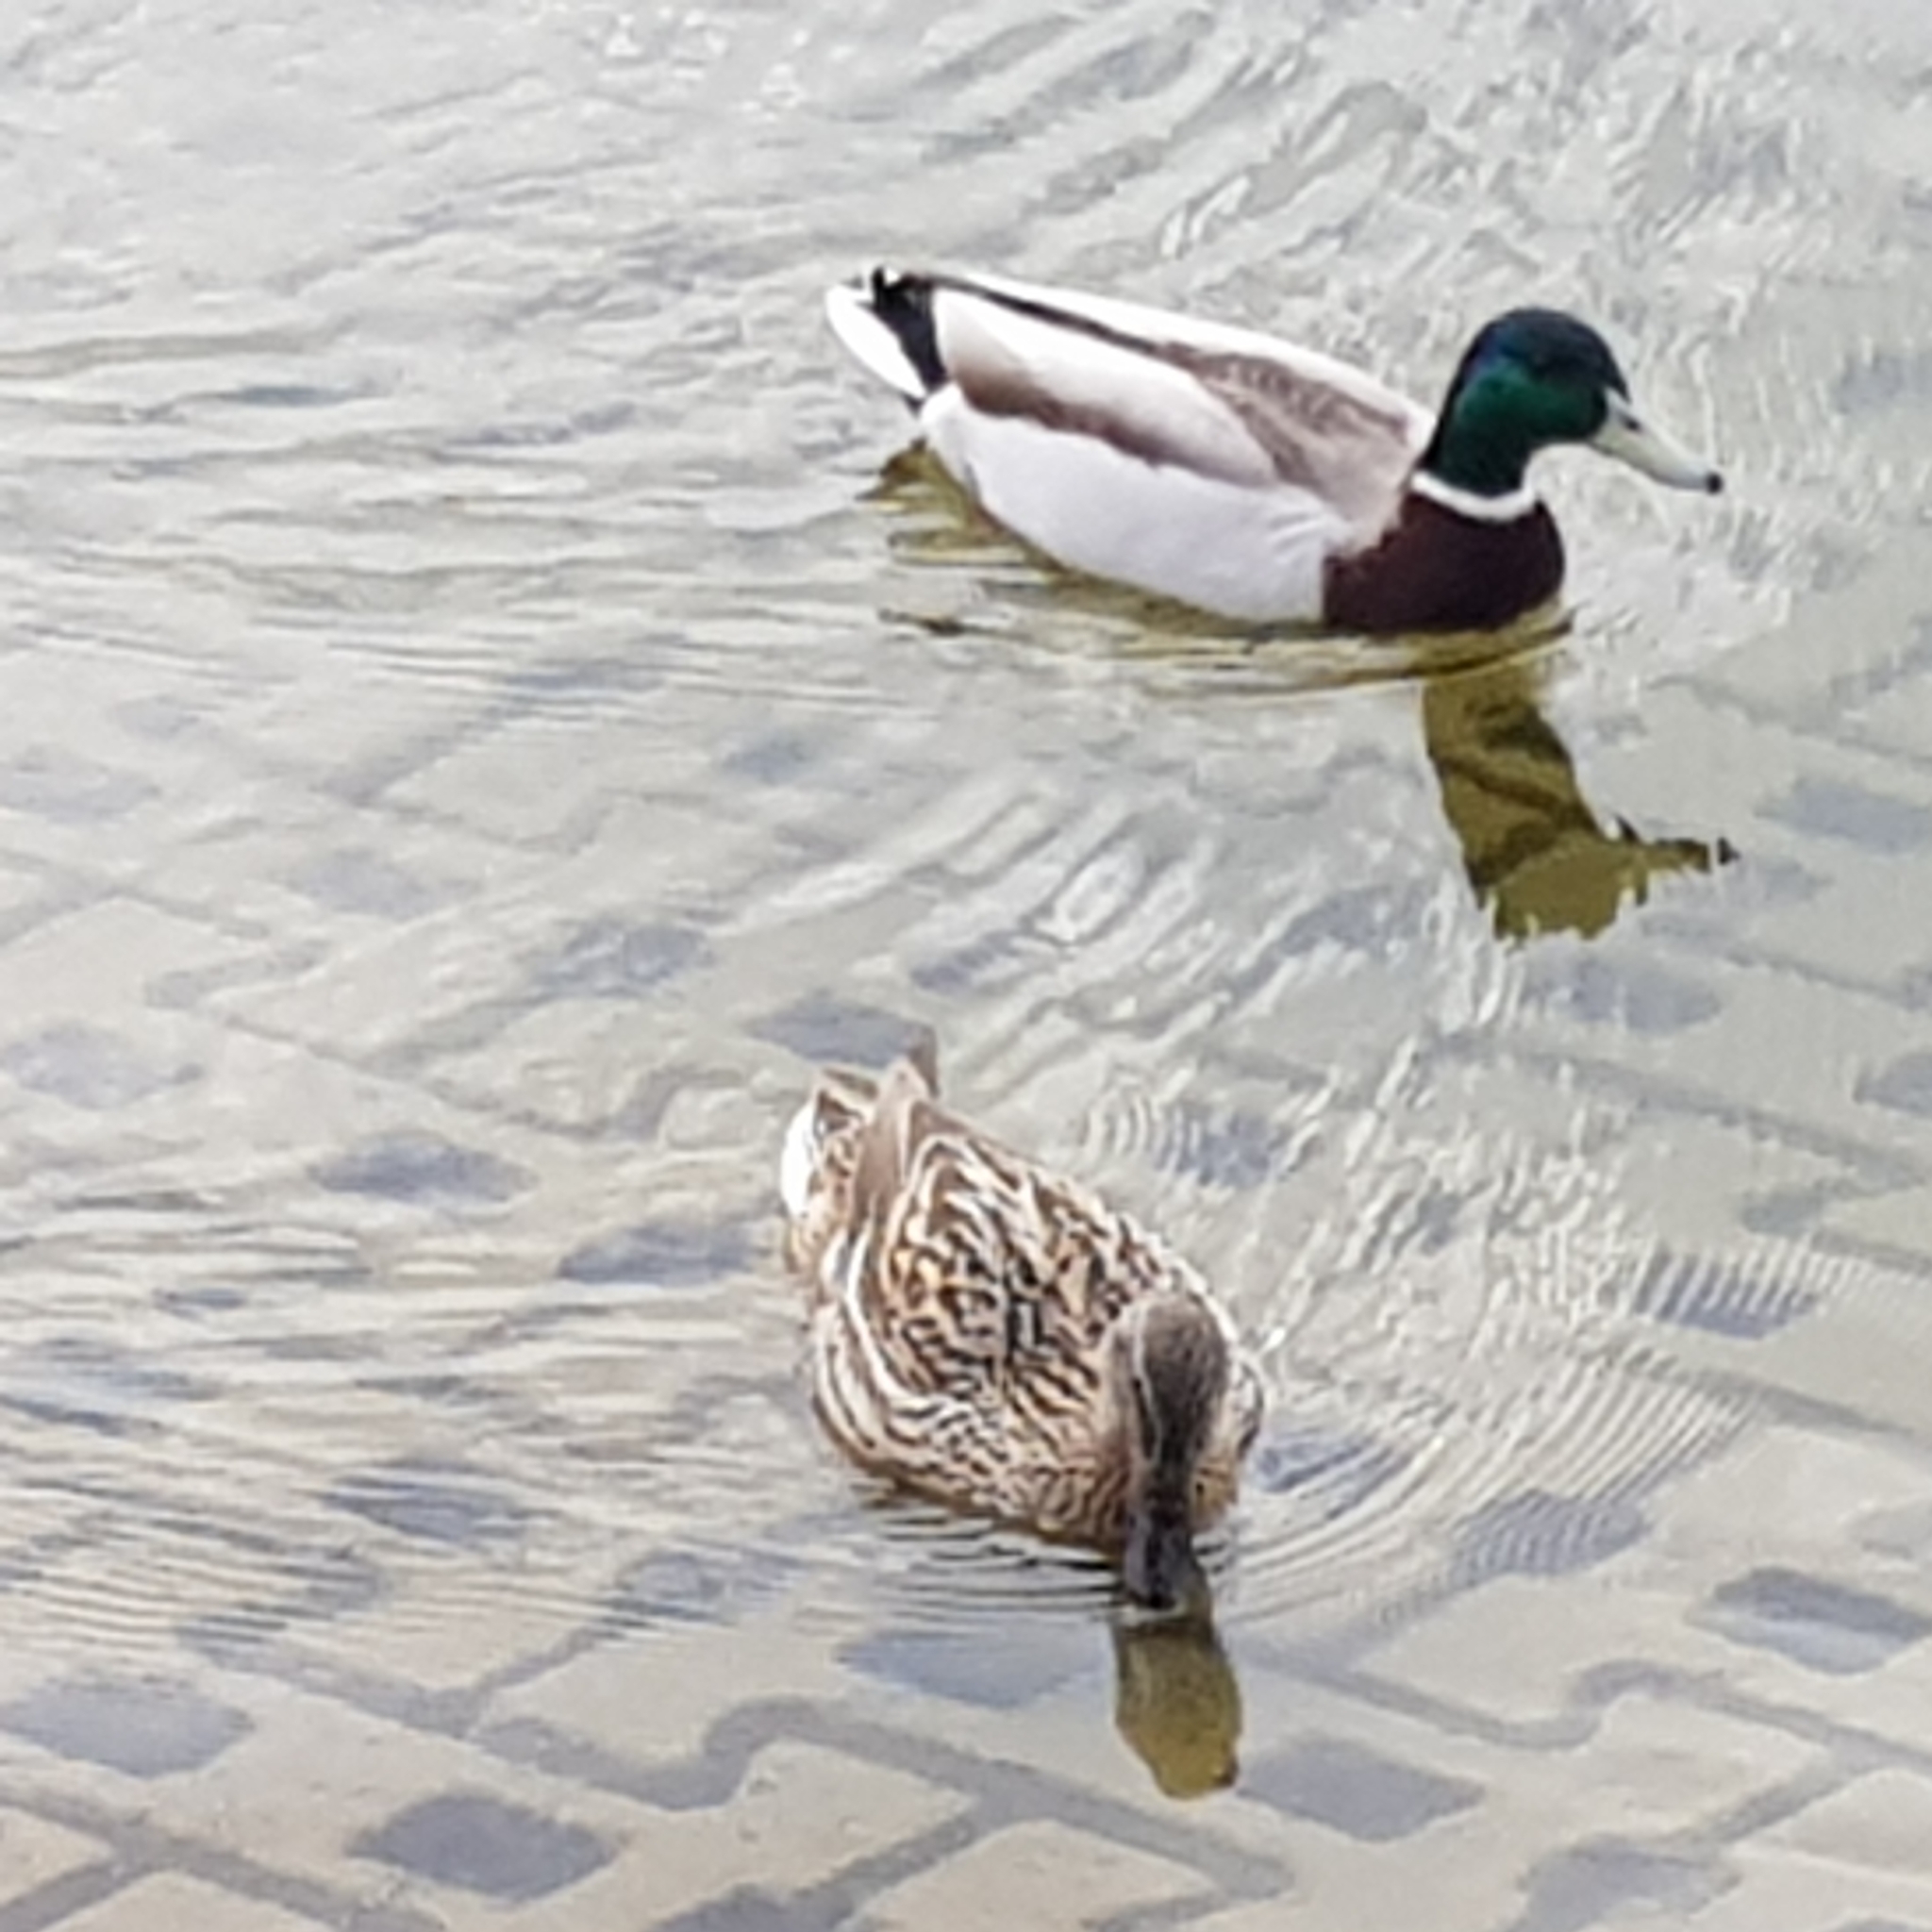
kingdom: Animalia
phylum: Chordata
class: Aves
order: Anseriformes
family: Anatidae
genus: Anas
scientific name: Anas platyrhynchos
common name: Mallard
